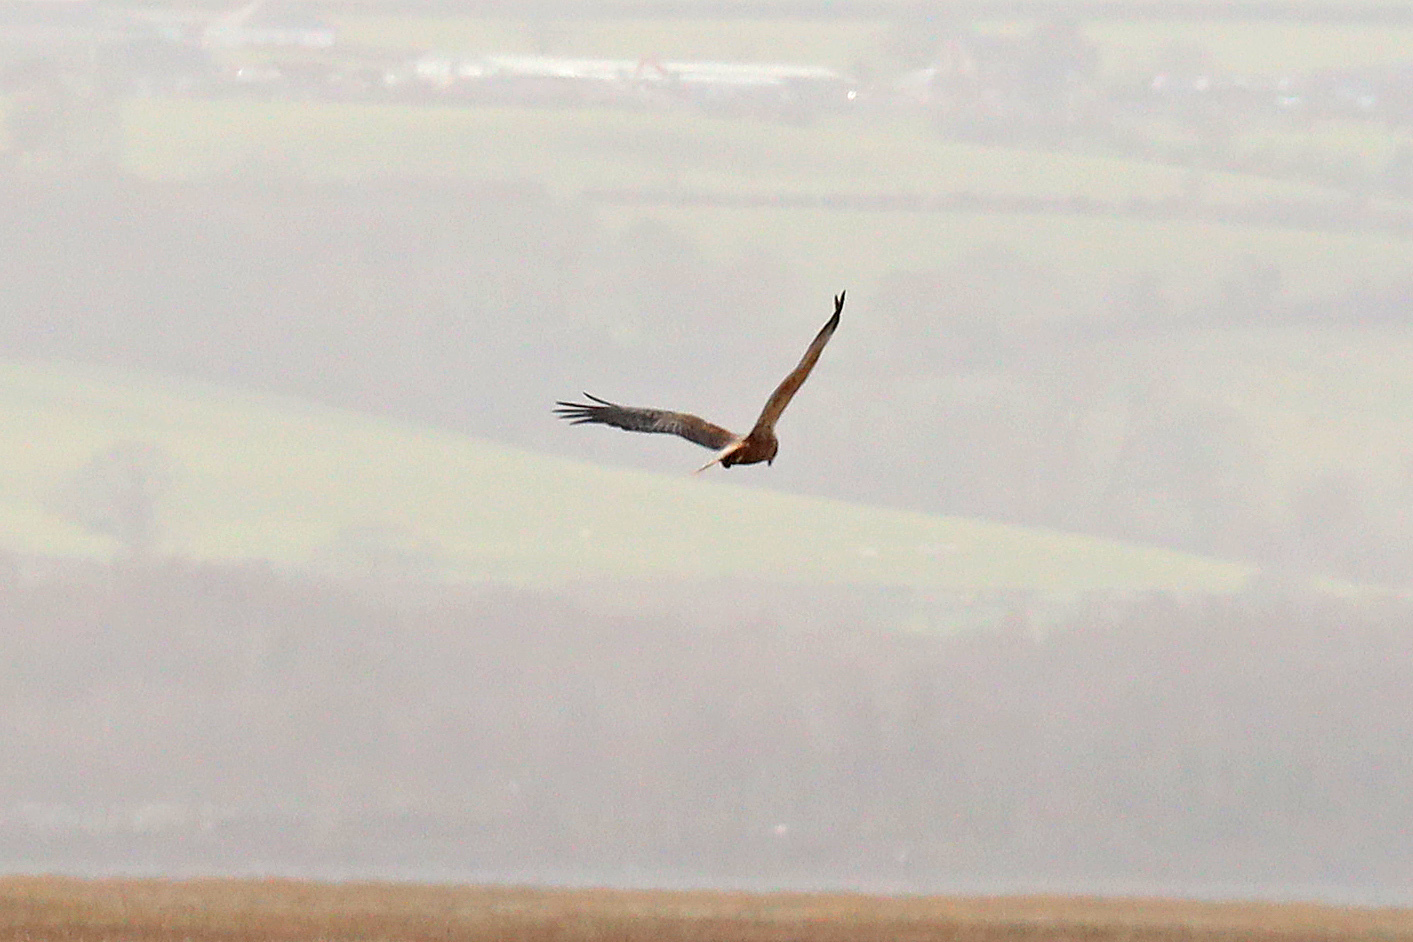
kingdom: Animalia
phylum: Chordata
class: Aves
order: Accipitriformes
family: Accipitridae
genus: Circus
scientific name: Circus aeruginosus
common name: Western marsh harrier
